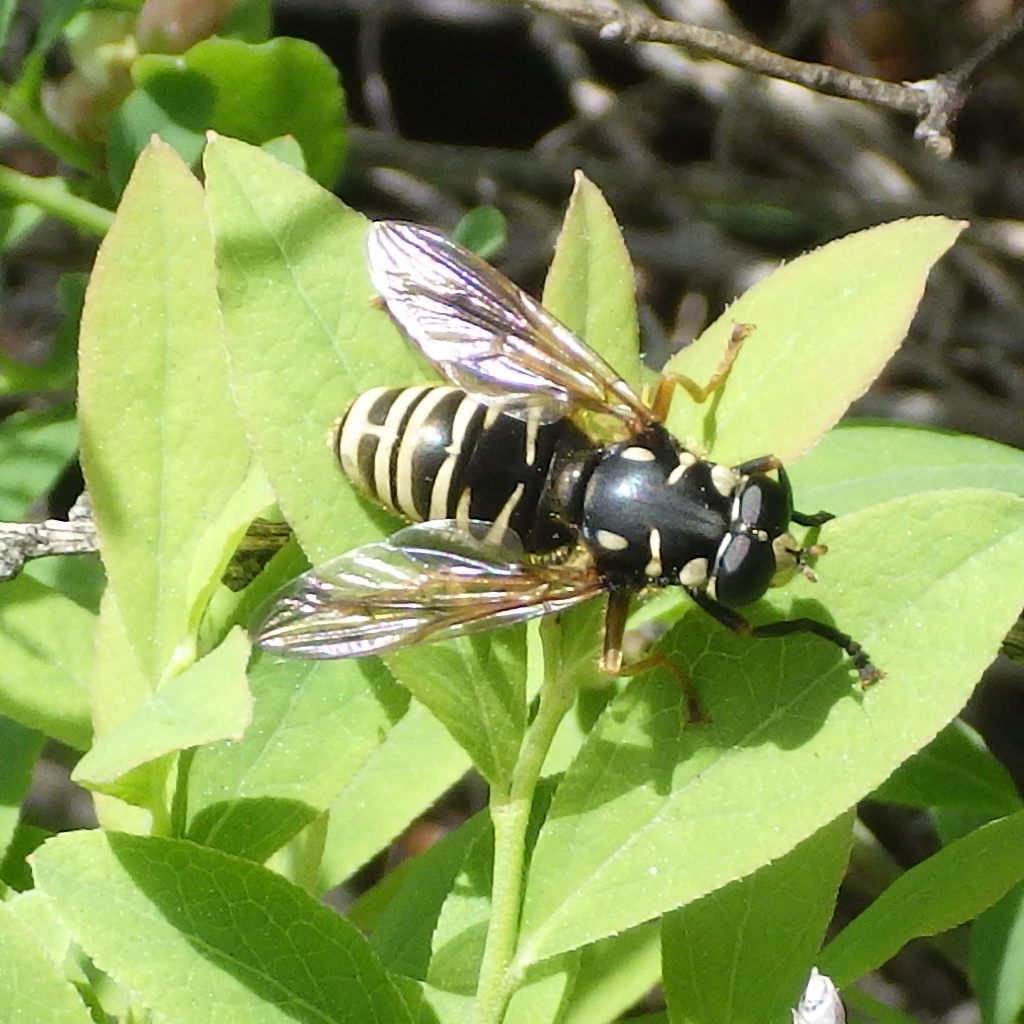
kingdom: Animalia
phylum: Arthropoda
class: Insecta
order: Diptera
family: Syrphidae
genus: Temnostoma
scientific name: Temnostoma excentricum
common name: Black-spotted falsehorn
